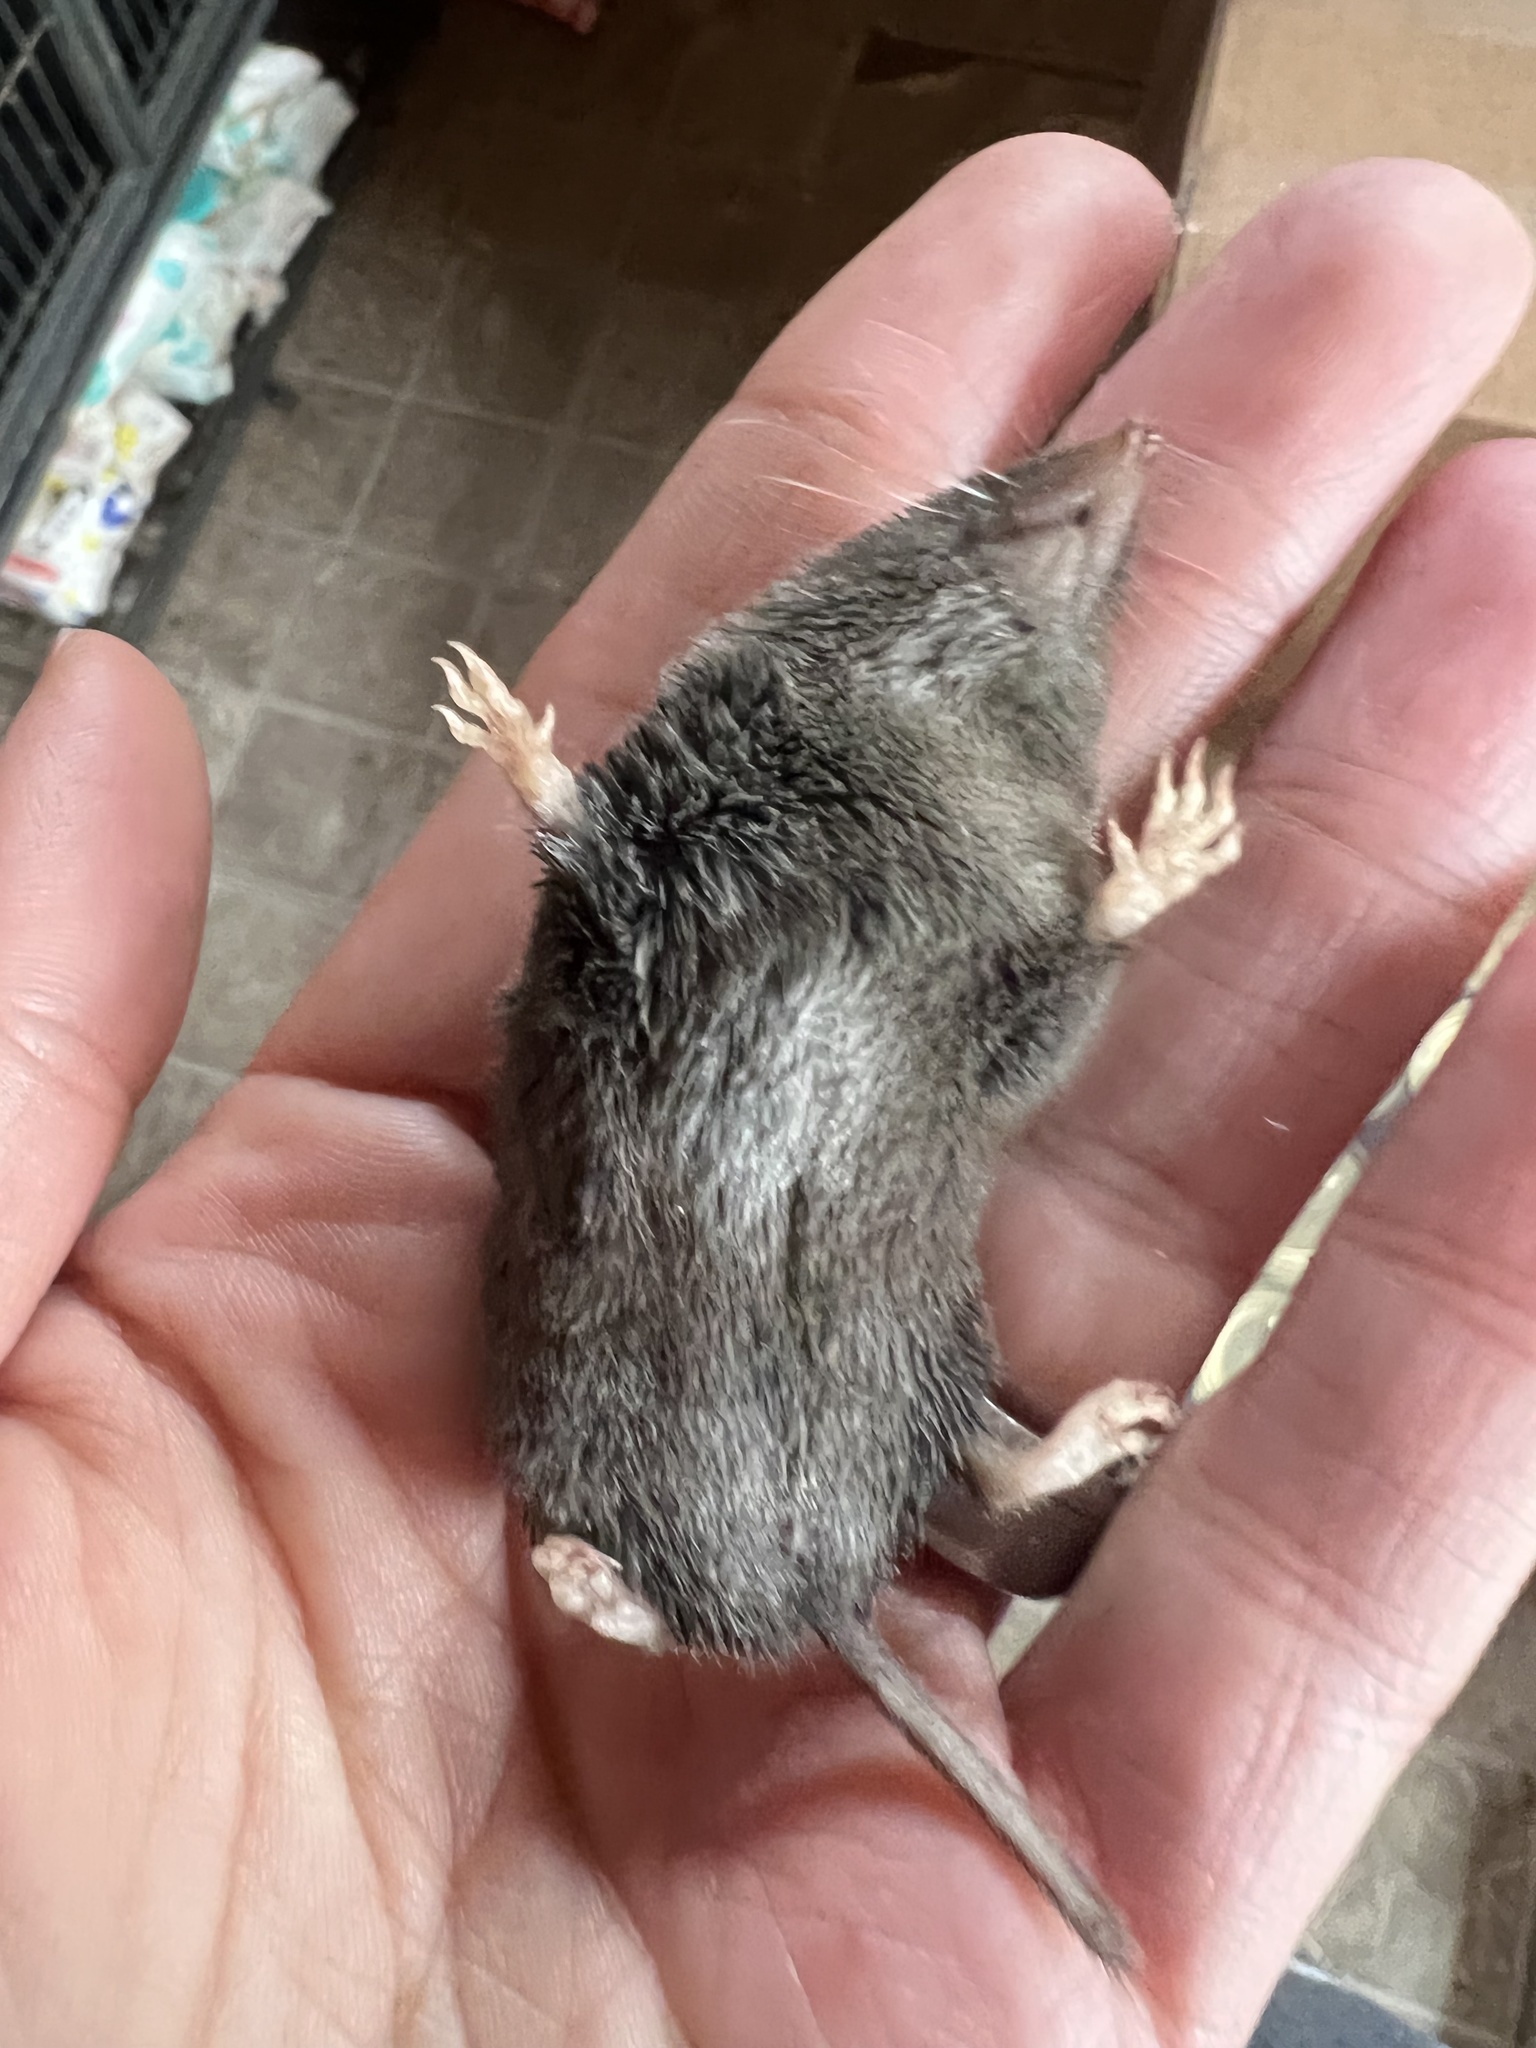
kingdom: Animalia
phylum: Chordata
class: Mammalia
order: Soricomorpha
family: Soricidae
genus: Blarina
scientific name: Blarina brevicauda
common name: Northern short-tailed shrew
